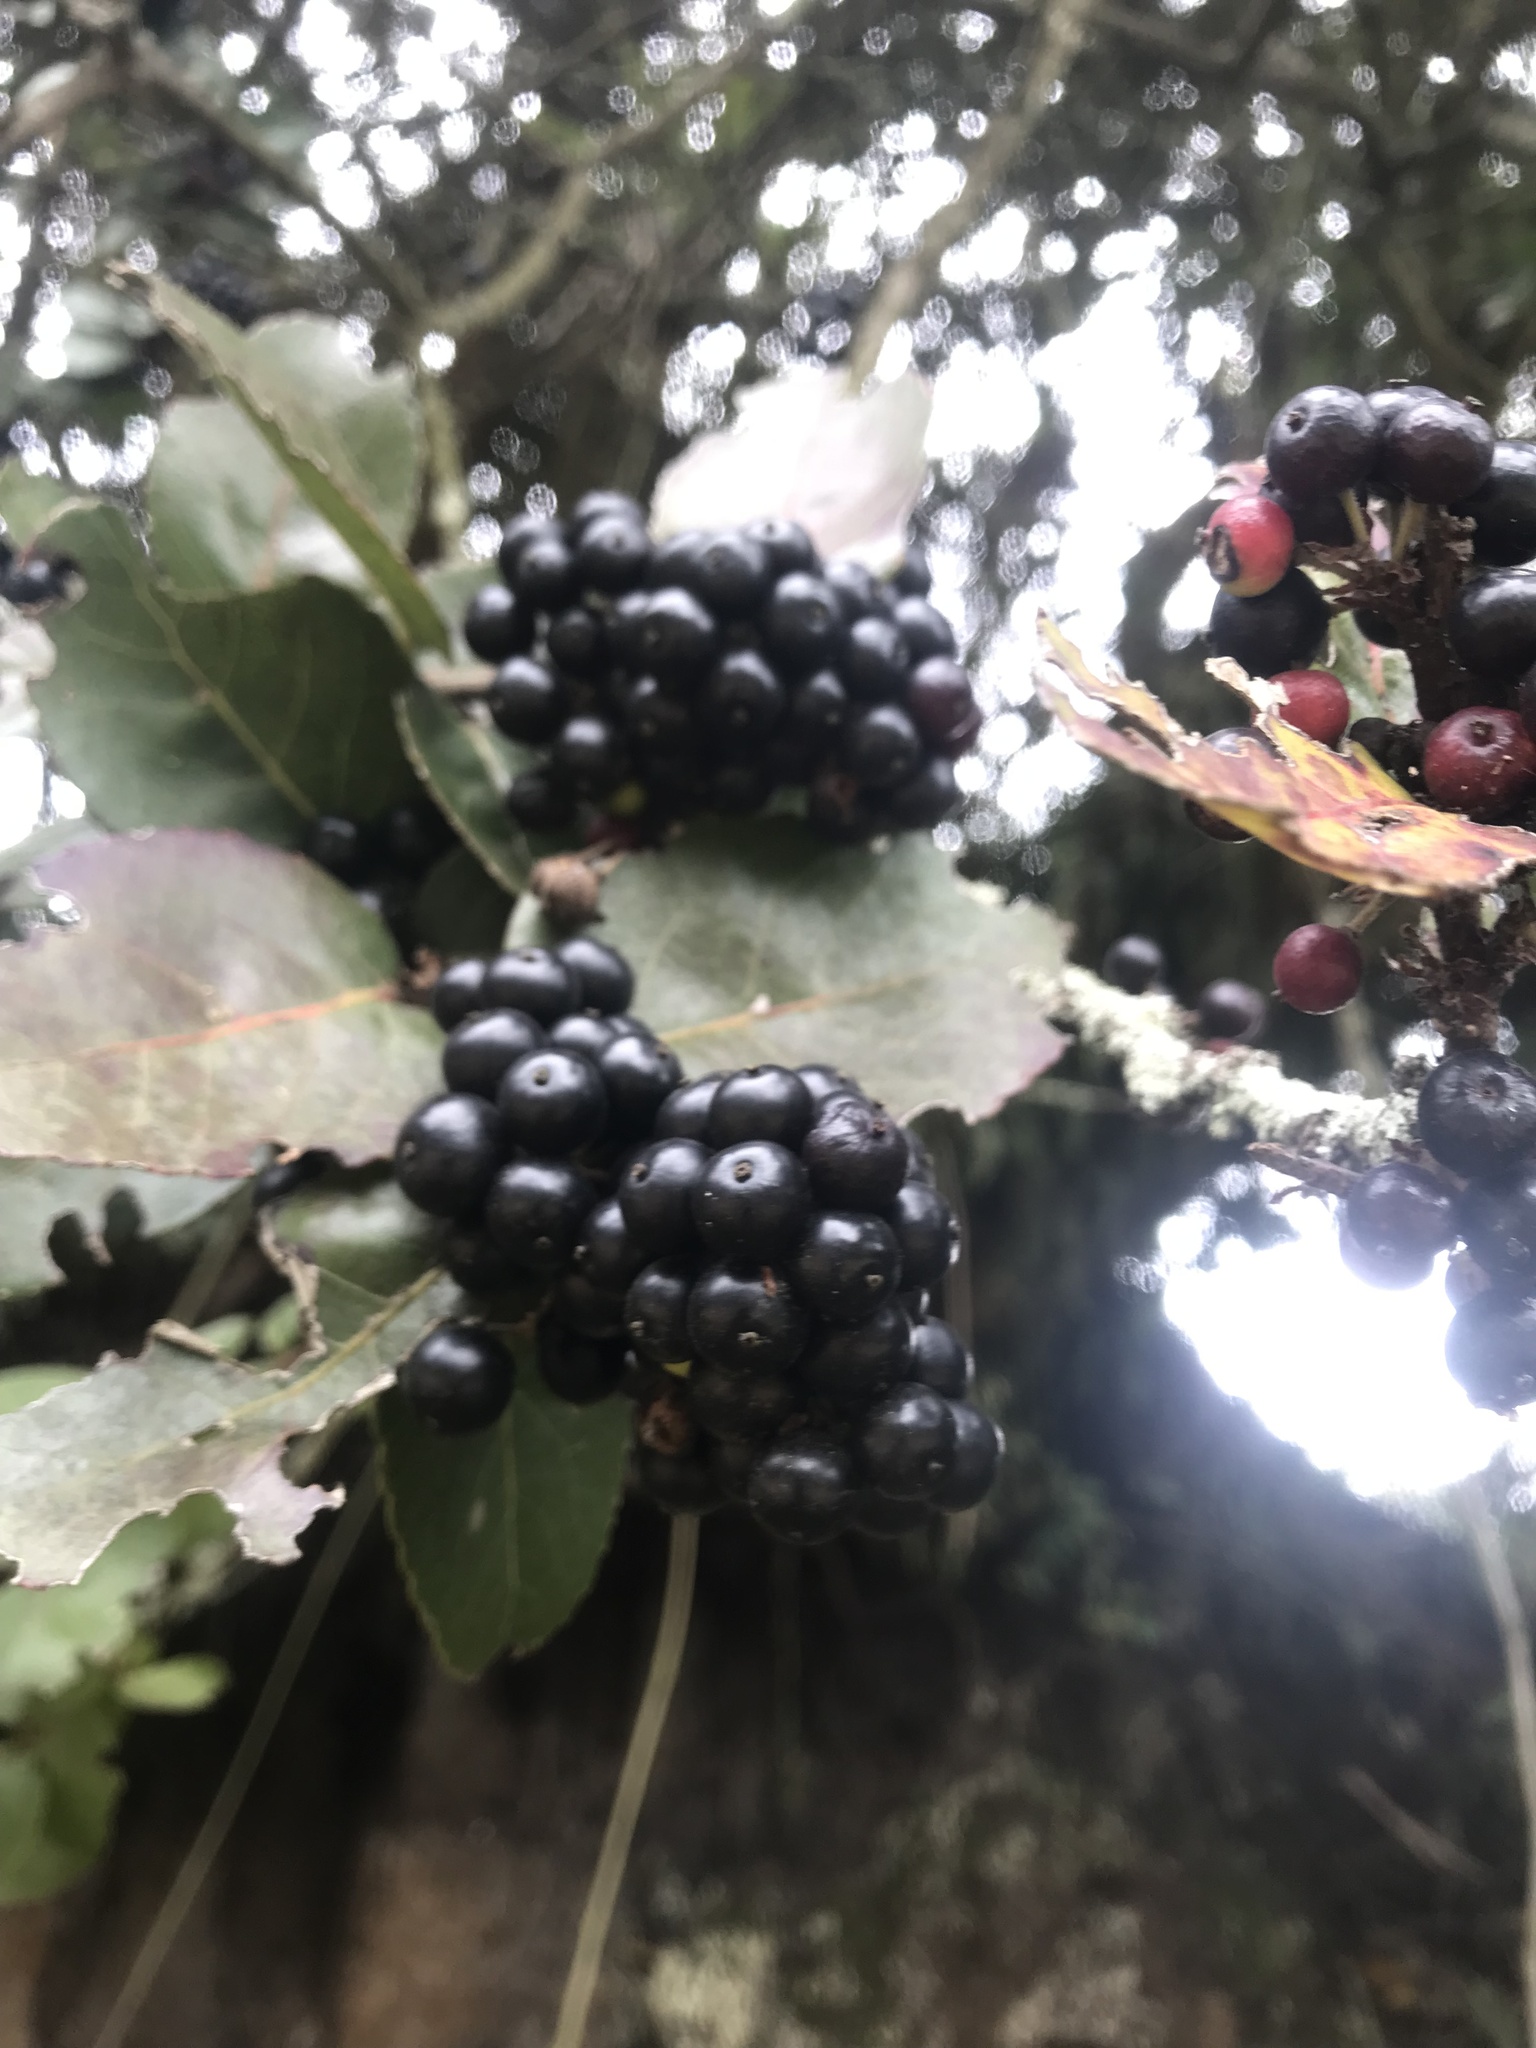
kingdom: Plantae
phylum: Tracheophyta
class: Magnoliopsida
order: Malpighiales
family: Salicaceae
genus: Xylosma
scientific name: Xylosma spiculifera
